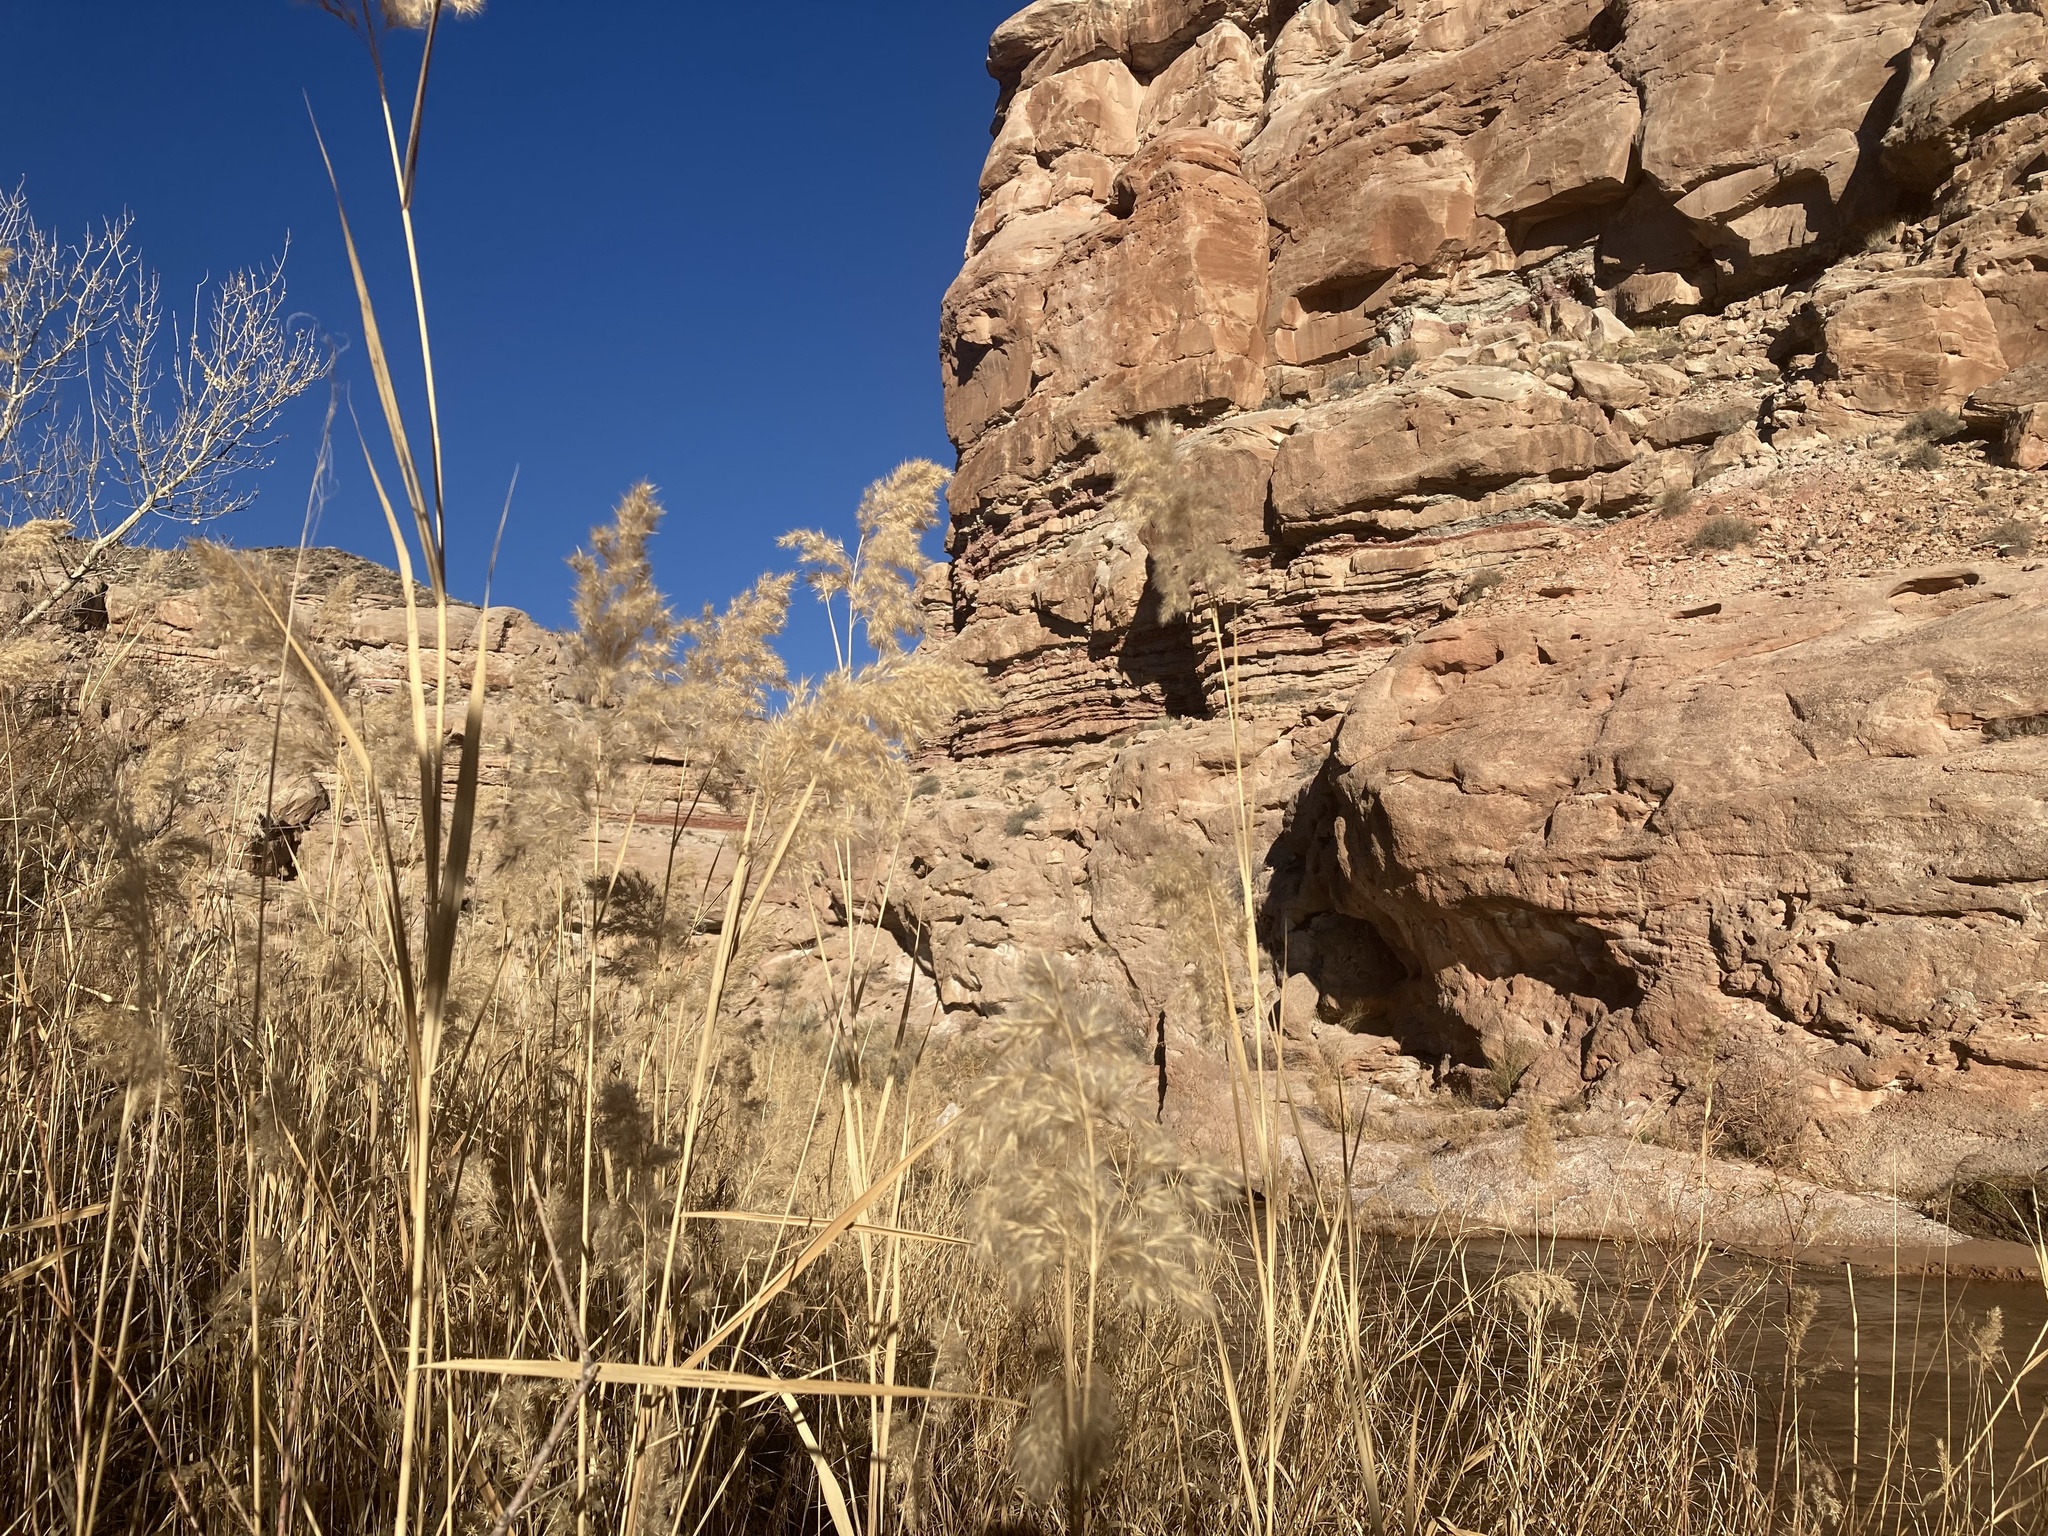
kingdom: Plantae
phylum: Tracheophyta
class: Liliopsida
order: Poales
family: Poaceae
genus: Phragmites
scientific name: Phragmites australis
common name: Common reed
